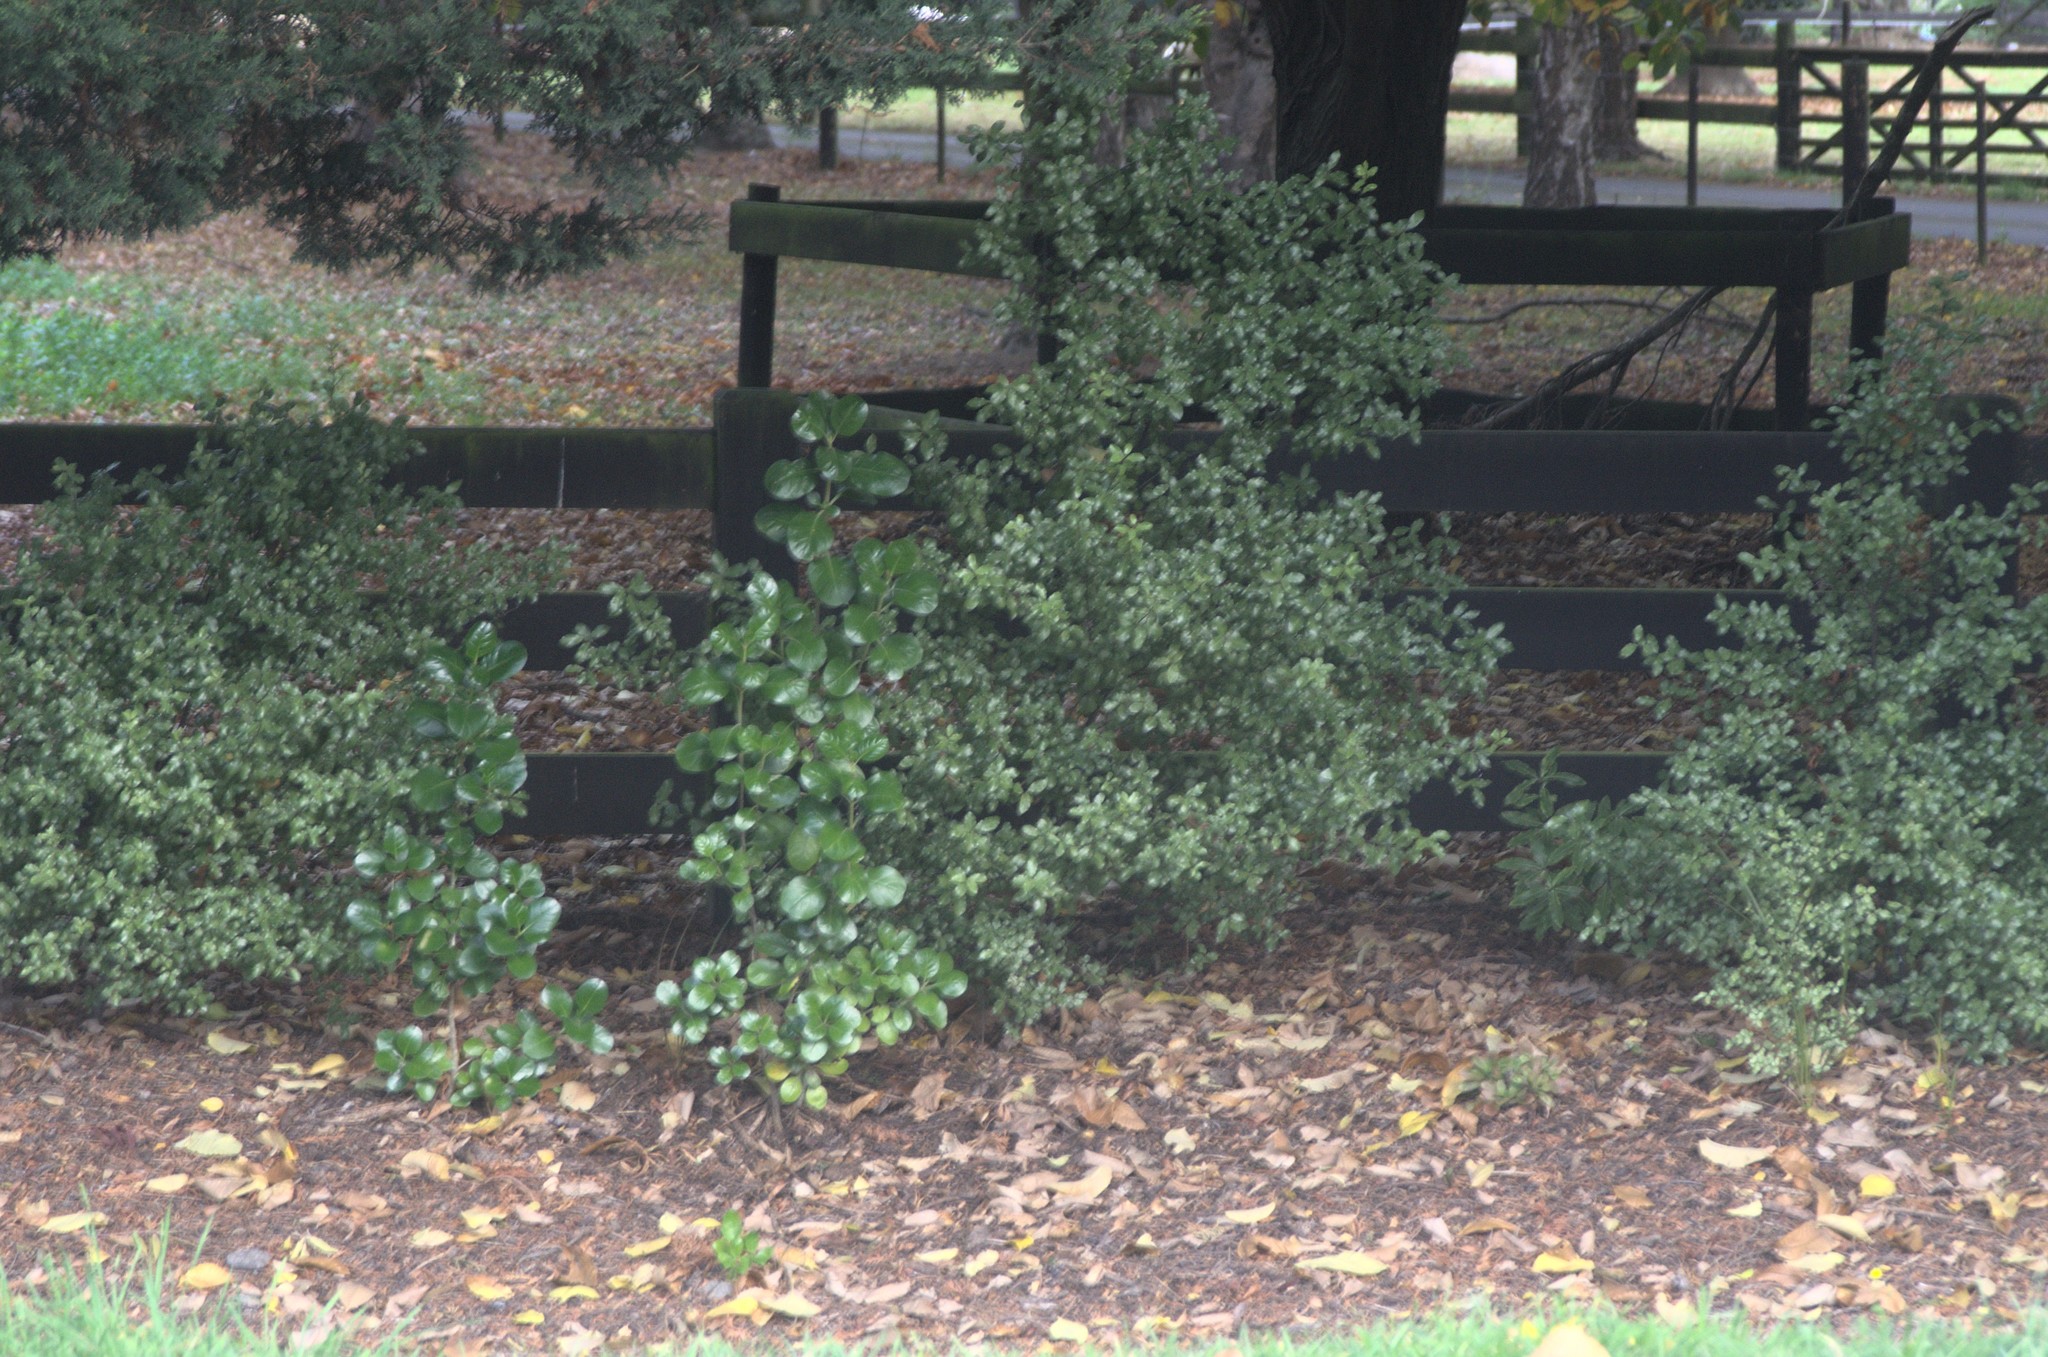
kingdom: Plantae
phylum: Tracheophyta
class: Magnoliopsida
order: Gentianales
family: Rubiaceae
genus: Coprosma
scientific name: Coprosma repens
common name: Tree bedstraw
